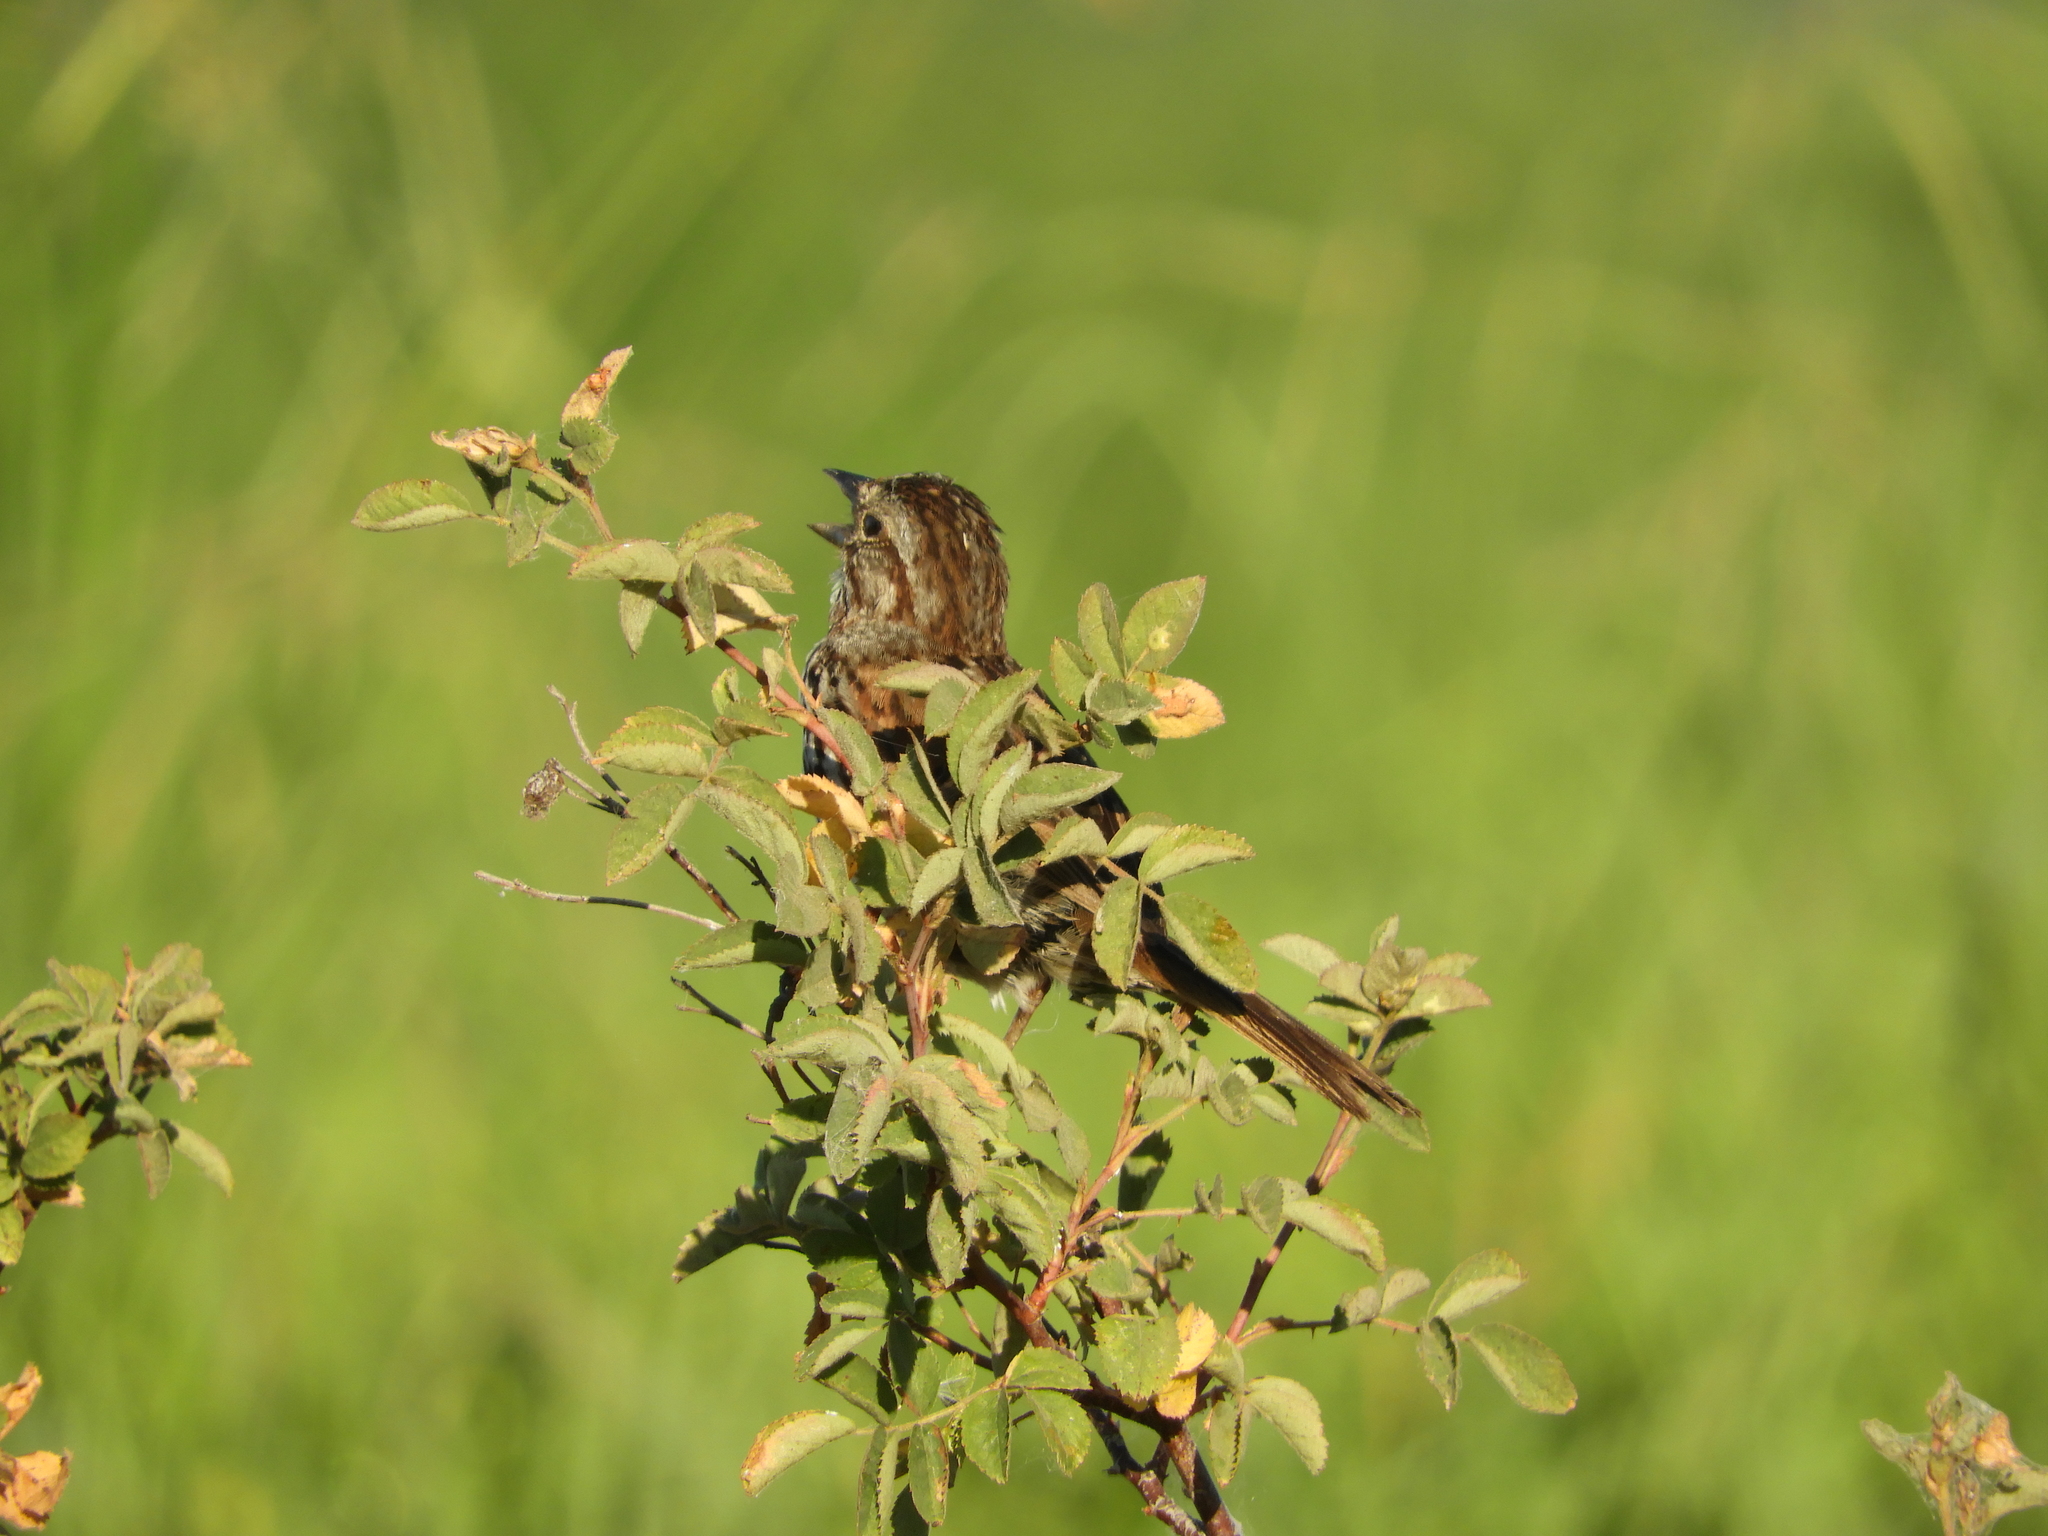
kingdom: Animalia
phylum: Chordata
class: Aves
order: Passeriformes
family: Passerellidae
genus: Melospiza
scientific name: Melospiza melodia
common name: Song sparrow
